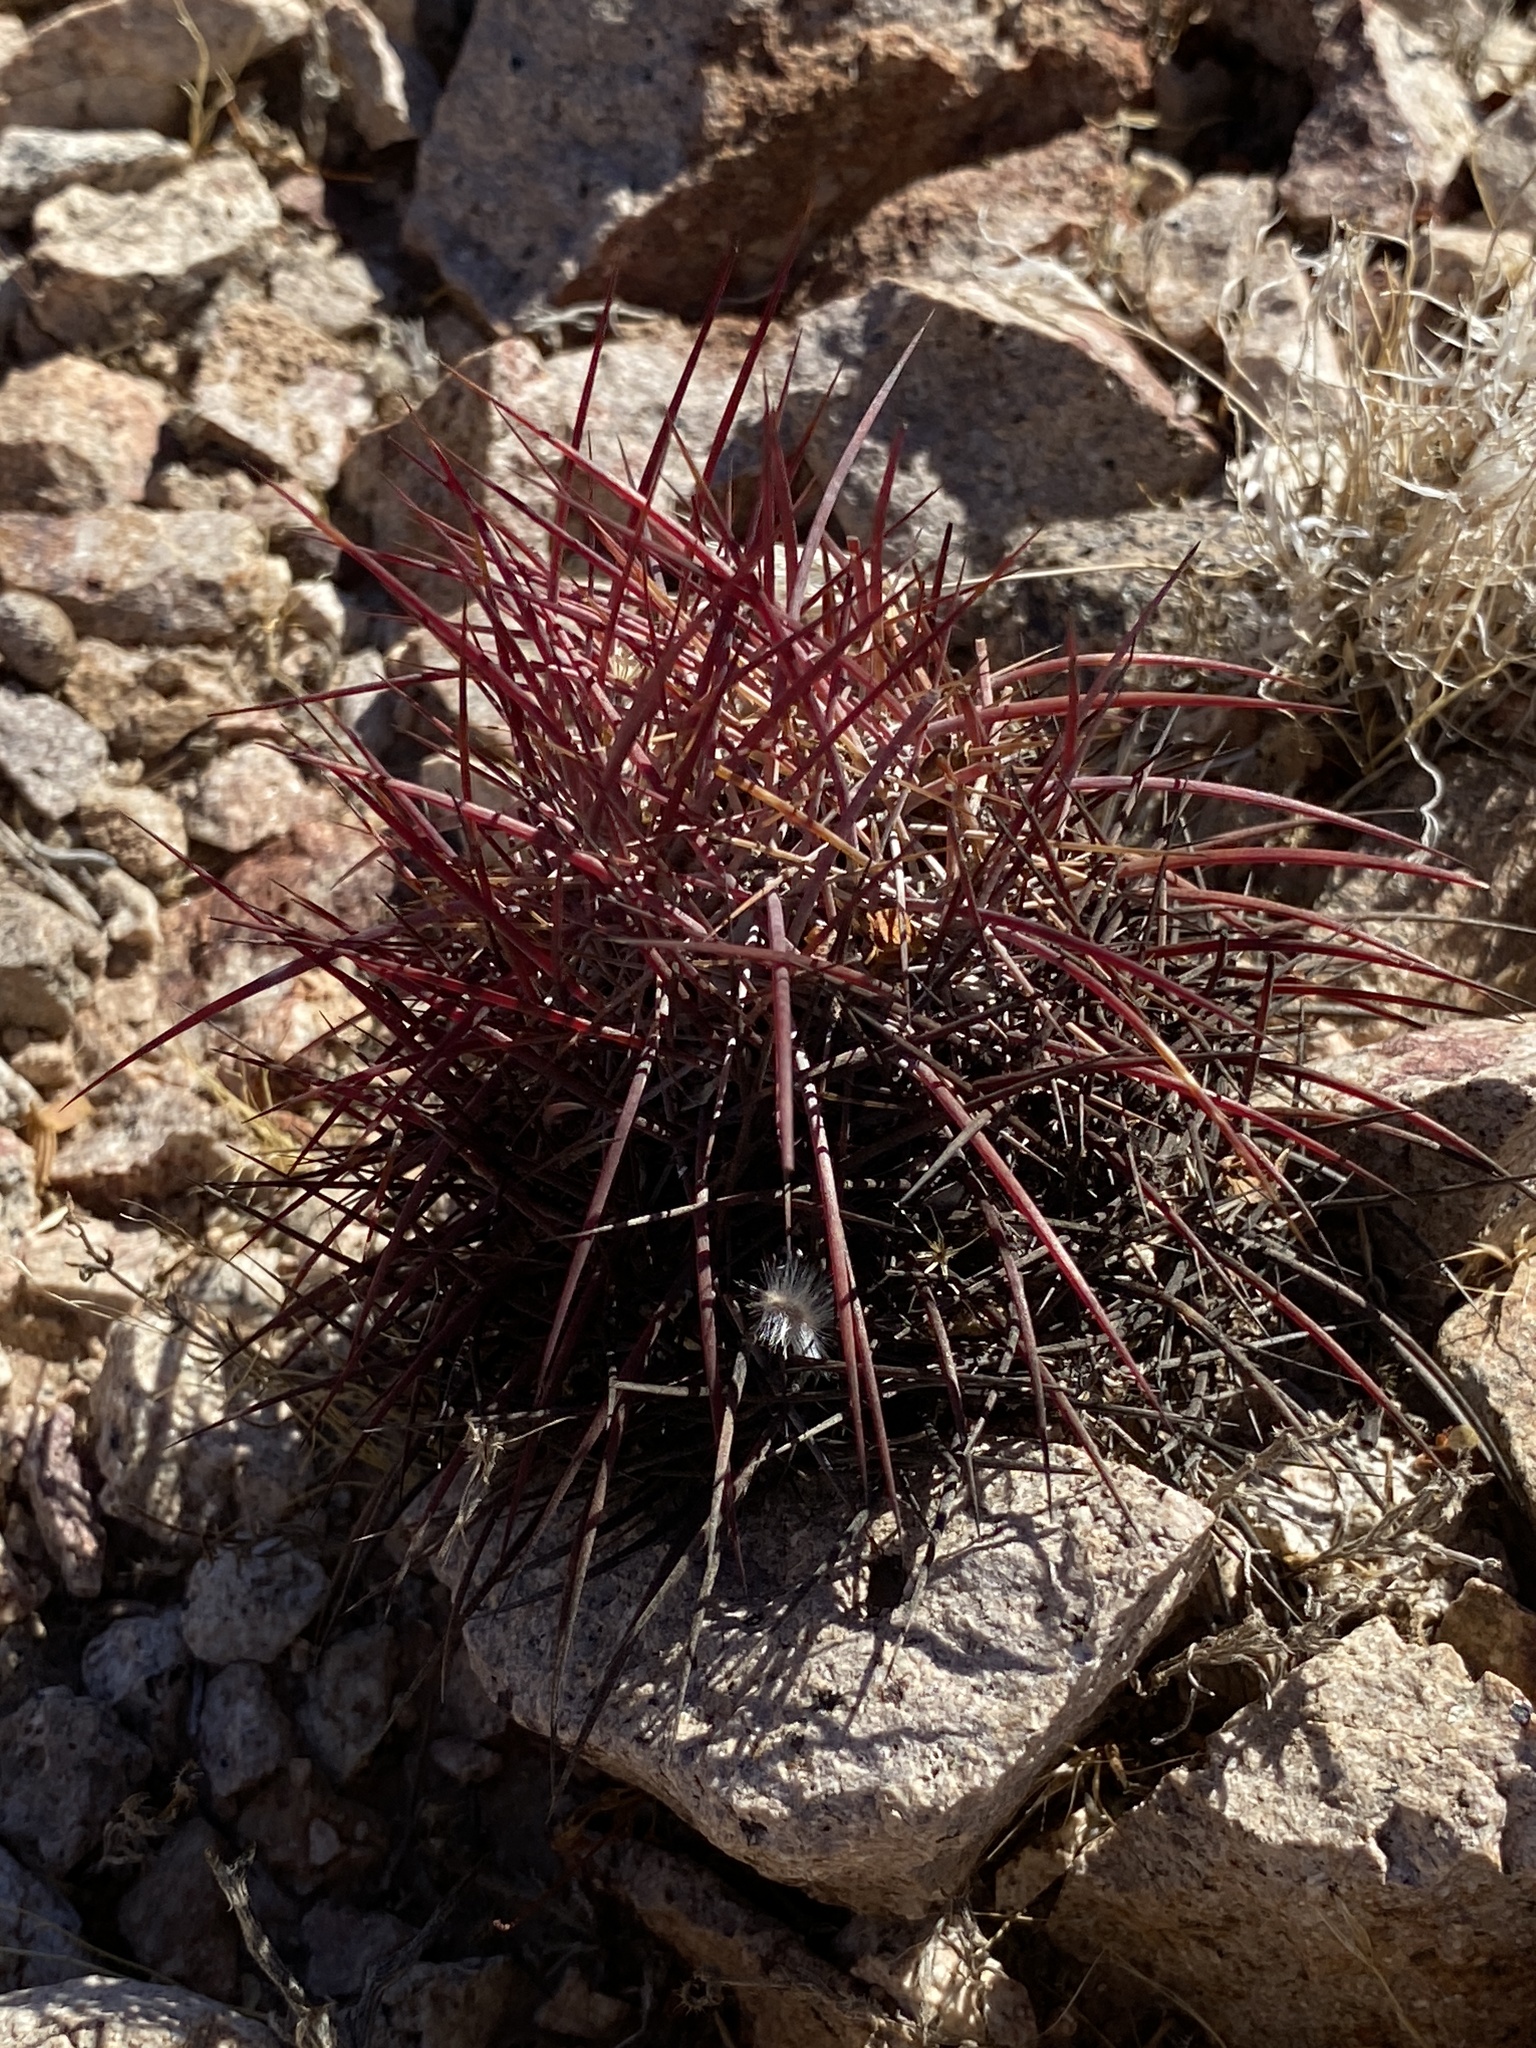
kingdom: Plantae
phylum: Tracheophyta
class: Magnoliopsida
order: Caryophyllales
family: Cactaceae
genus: Sclerocactus
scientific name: Sclerocactus johnsonii
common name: Eight-spine fishhook cactus
